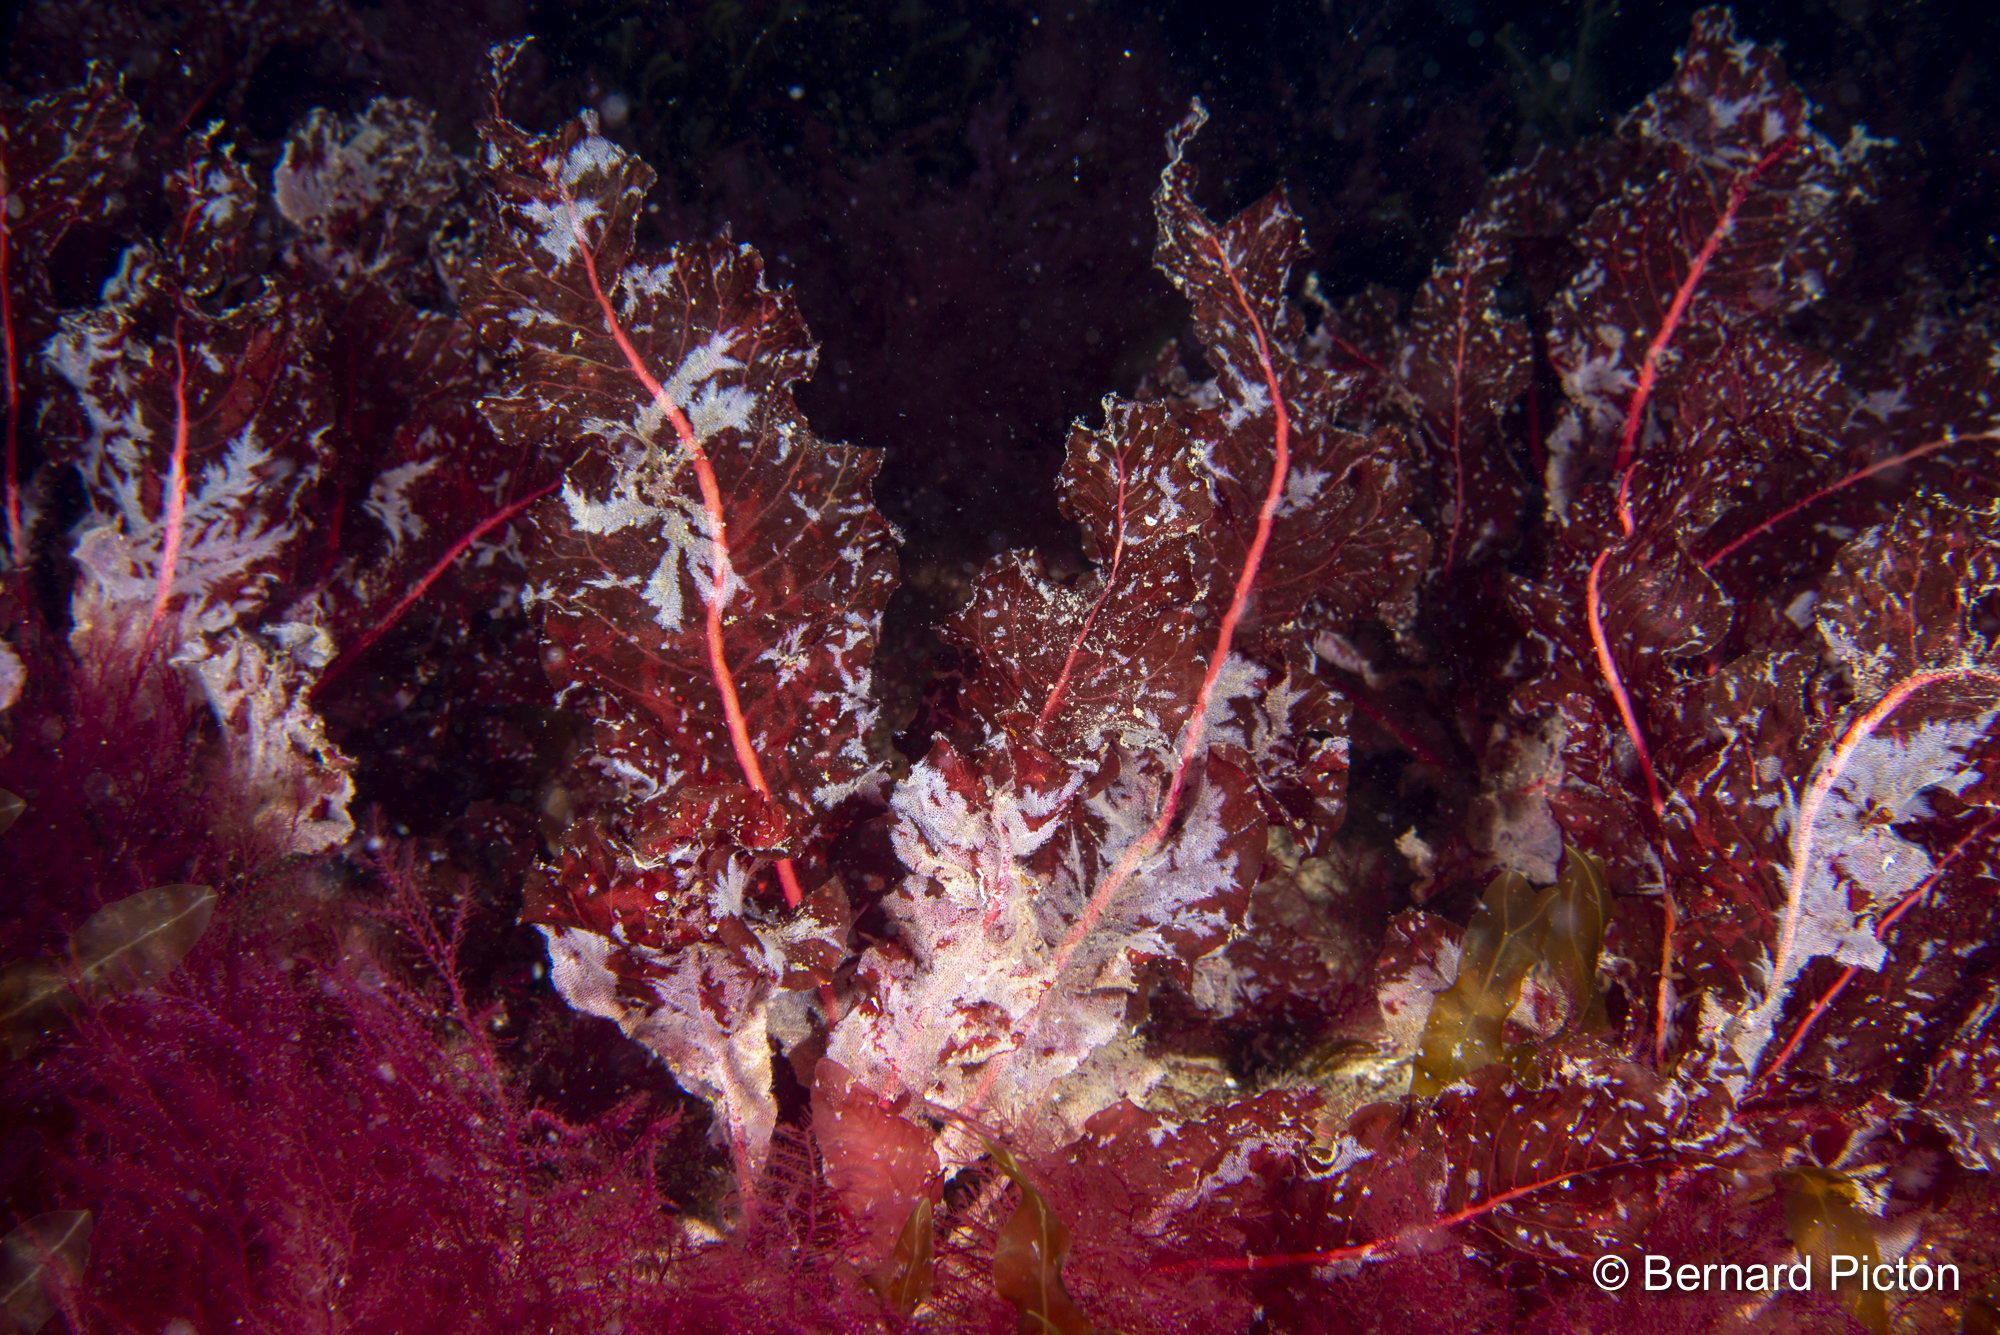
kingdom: Plantae
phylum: Rhodophyta
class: Florideophyceae
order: Ceramiales
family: Delesseriaceae
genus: Delesseria
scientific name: Delesseria sanguinea
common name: Sea beech
